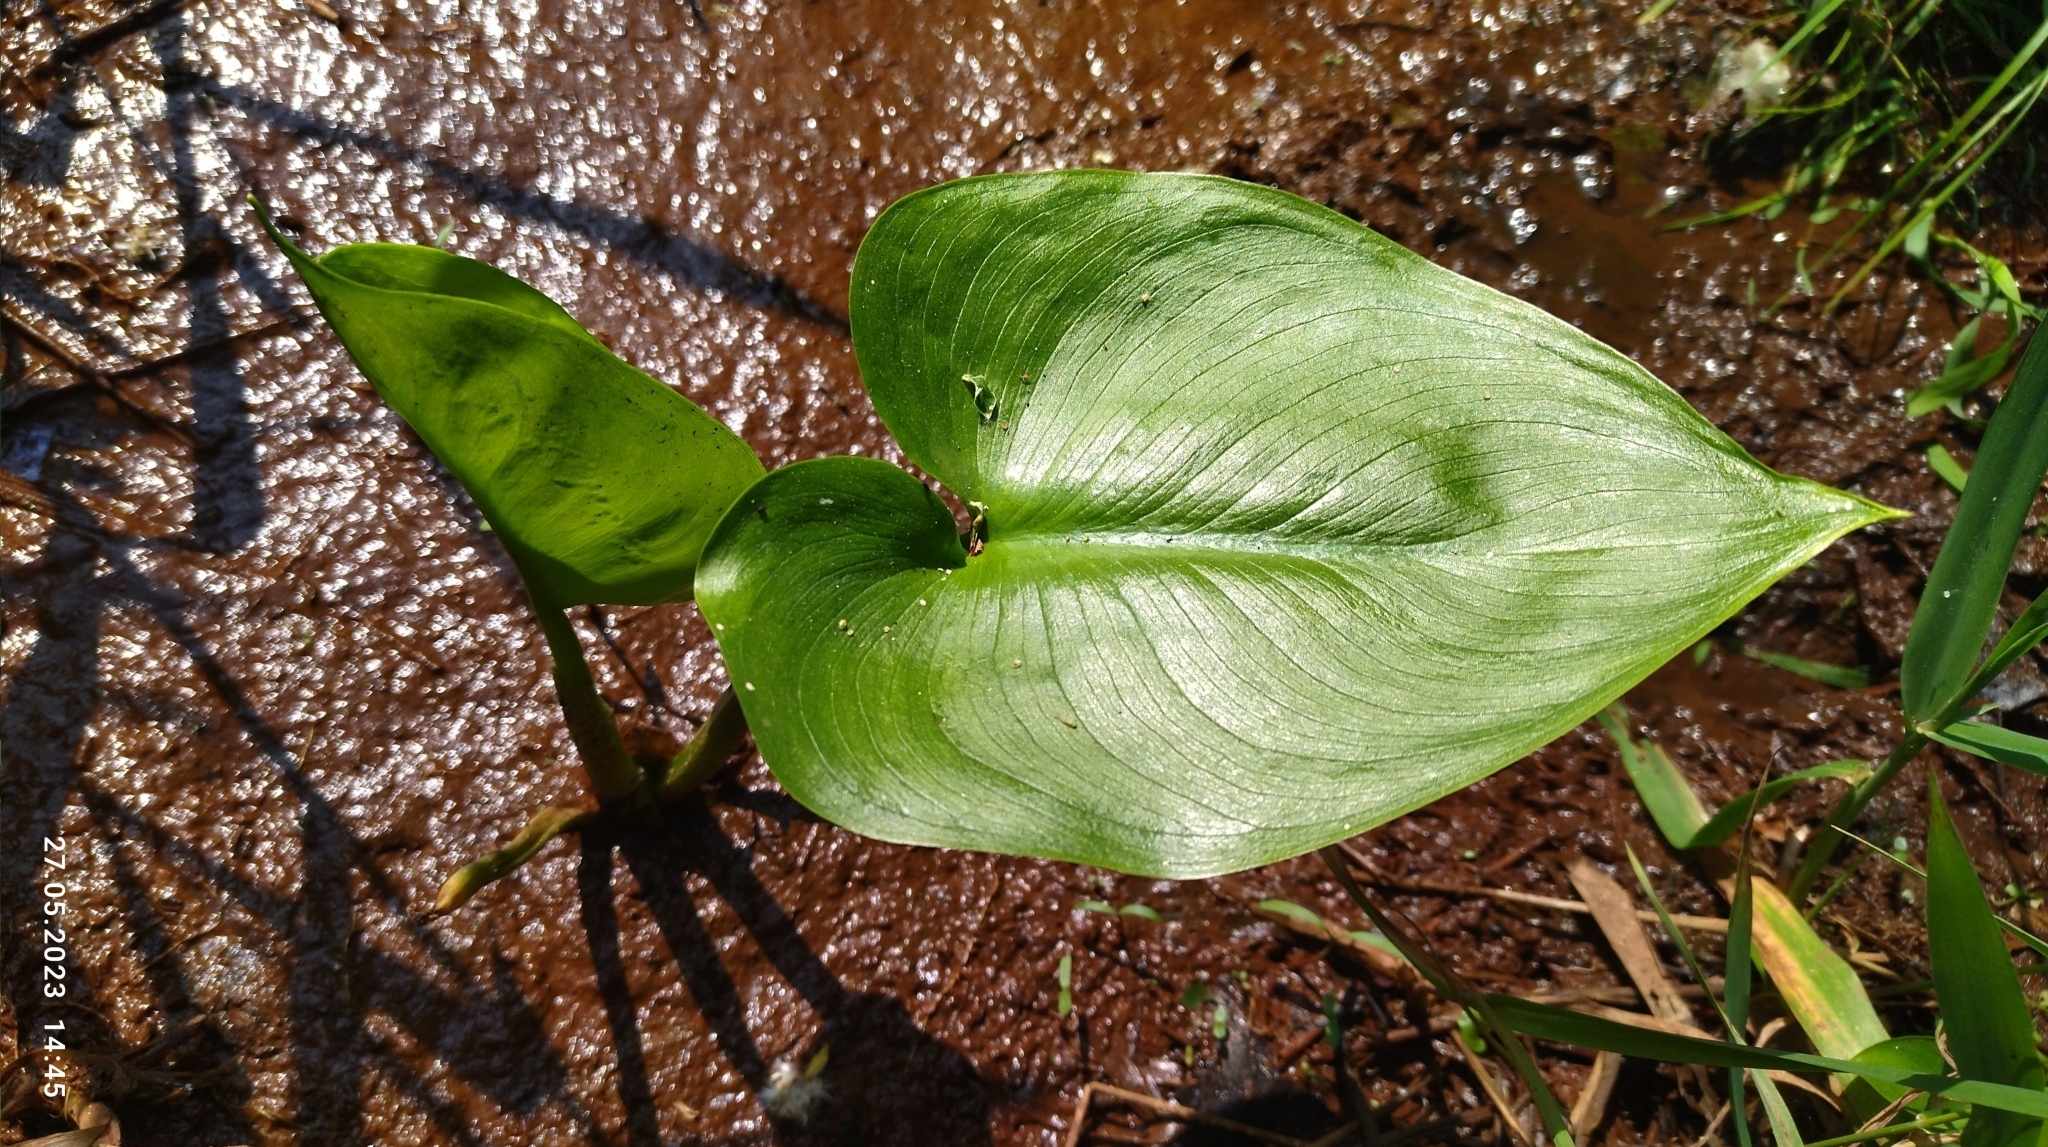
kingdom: Plantae
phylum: Tracheophyta
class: Liliopsida
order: Alismatales
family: Araceae
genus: Calla
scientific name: Calla palustris
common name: Bog arum
